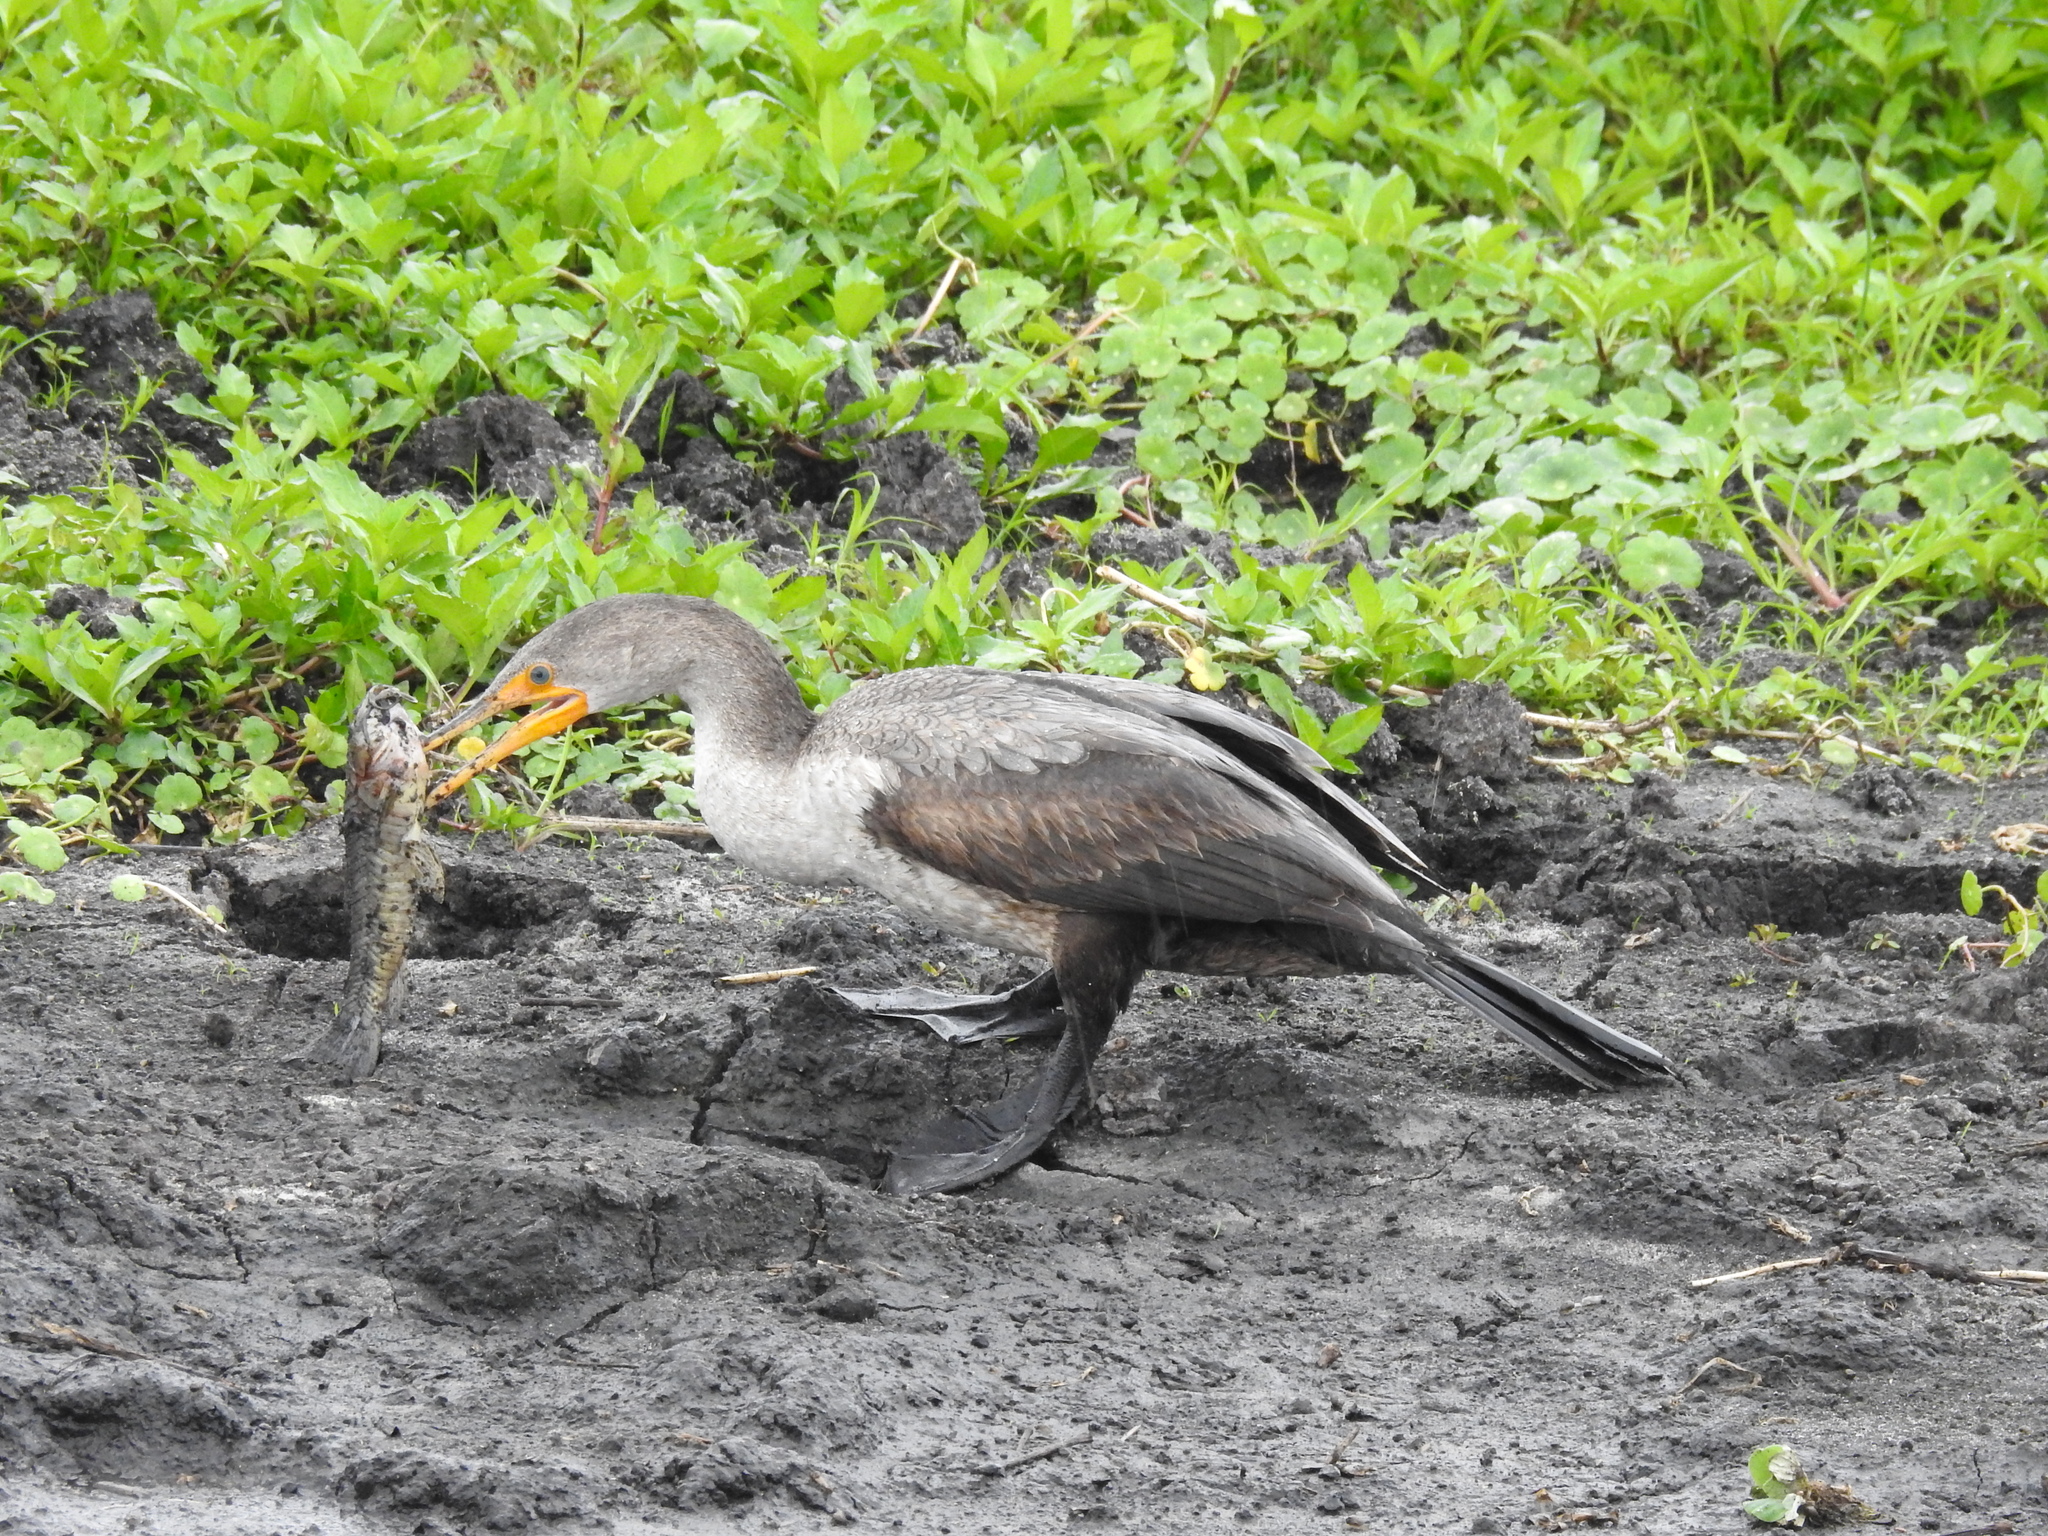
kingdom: Animalia
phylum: Chordata
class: Aves
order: Suliformes
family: Phalacrocoracidae
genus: Phalacrocorax
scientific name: Phalacrocorax auritus
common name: Double-crested cormorant
